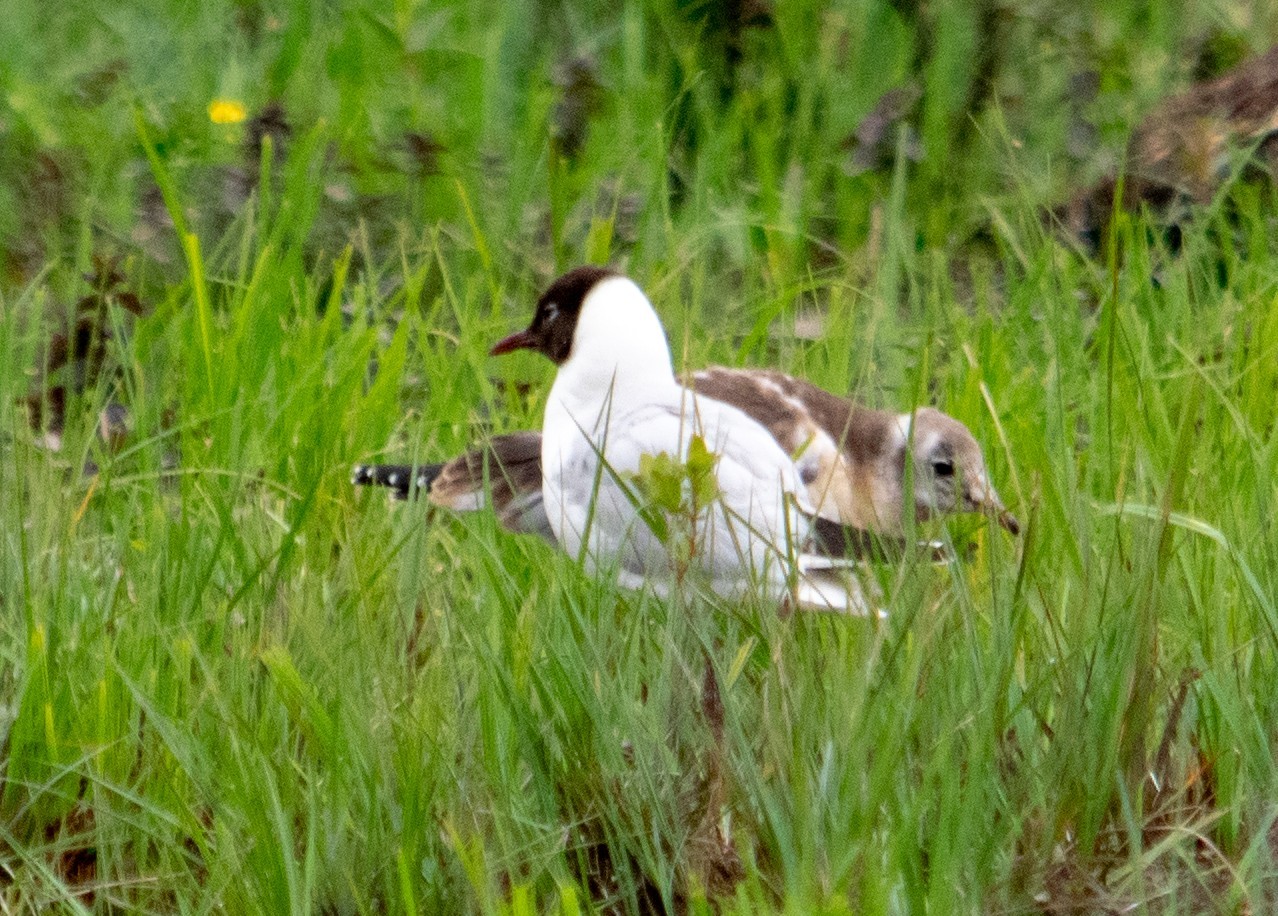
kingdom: Animalia
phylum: Chordata
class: Aves
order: Charadriiformes
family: Laridae
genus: Chroicocephalus
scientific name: Chroicocephalus ridibundus
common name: Black-headed gull
